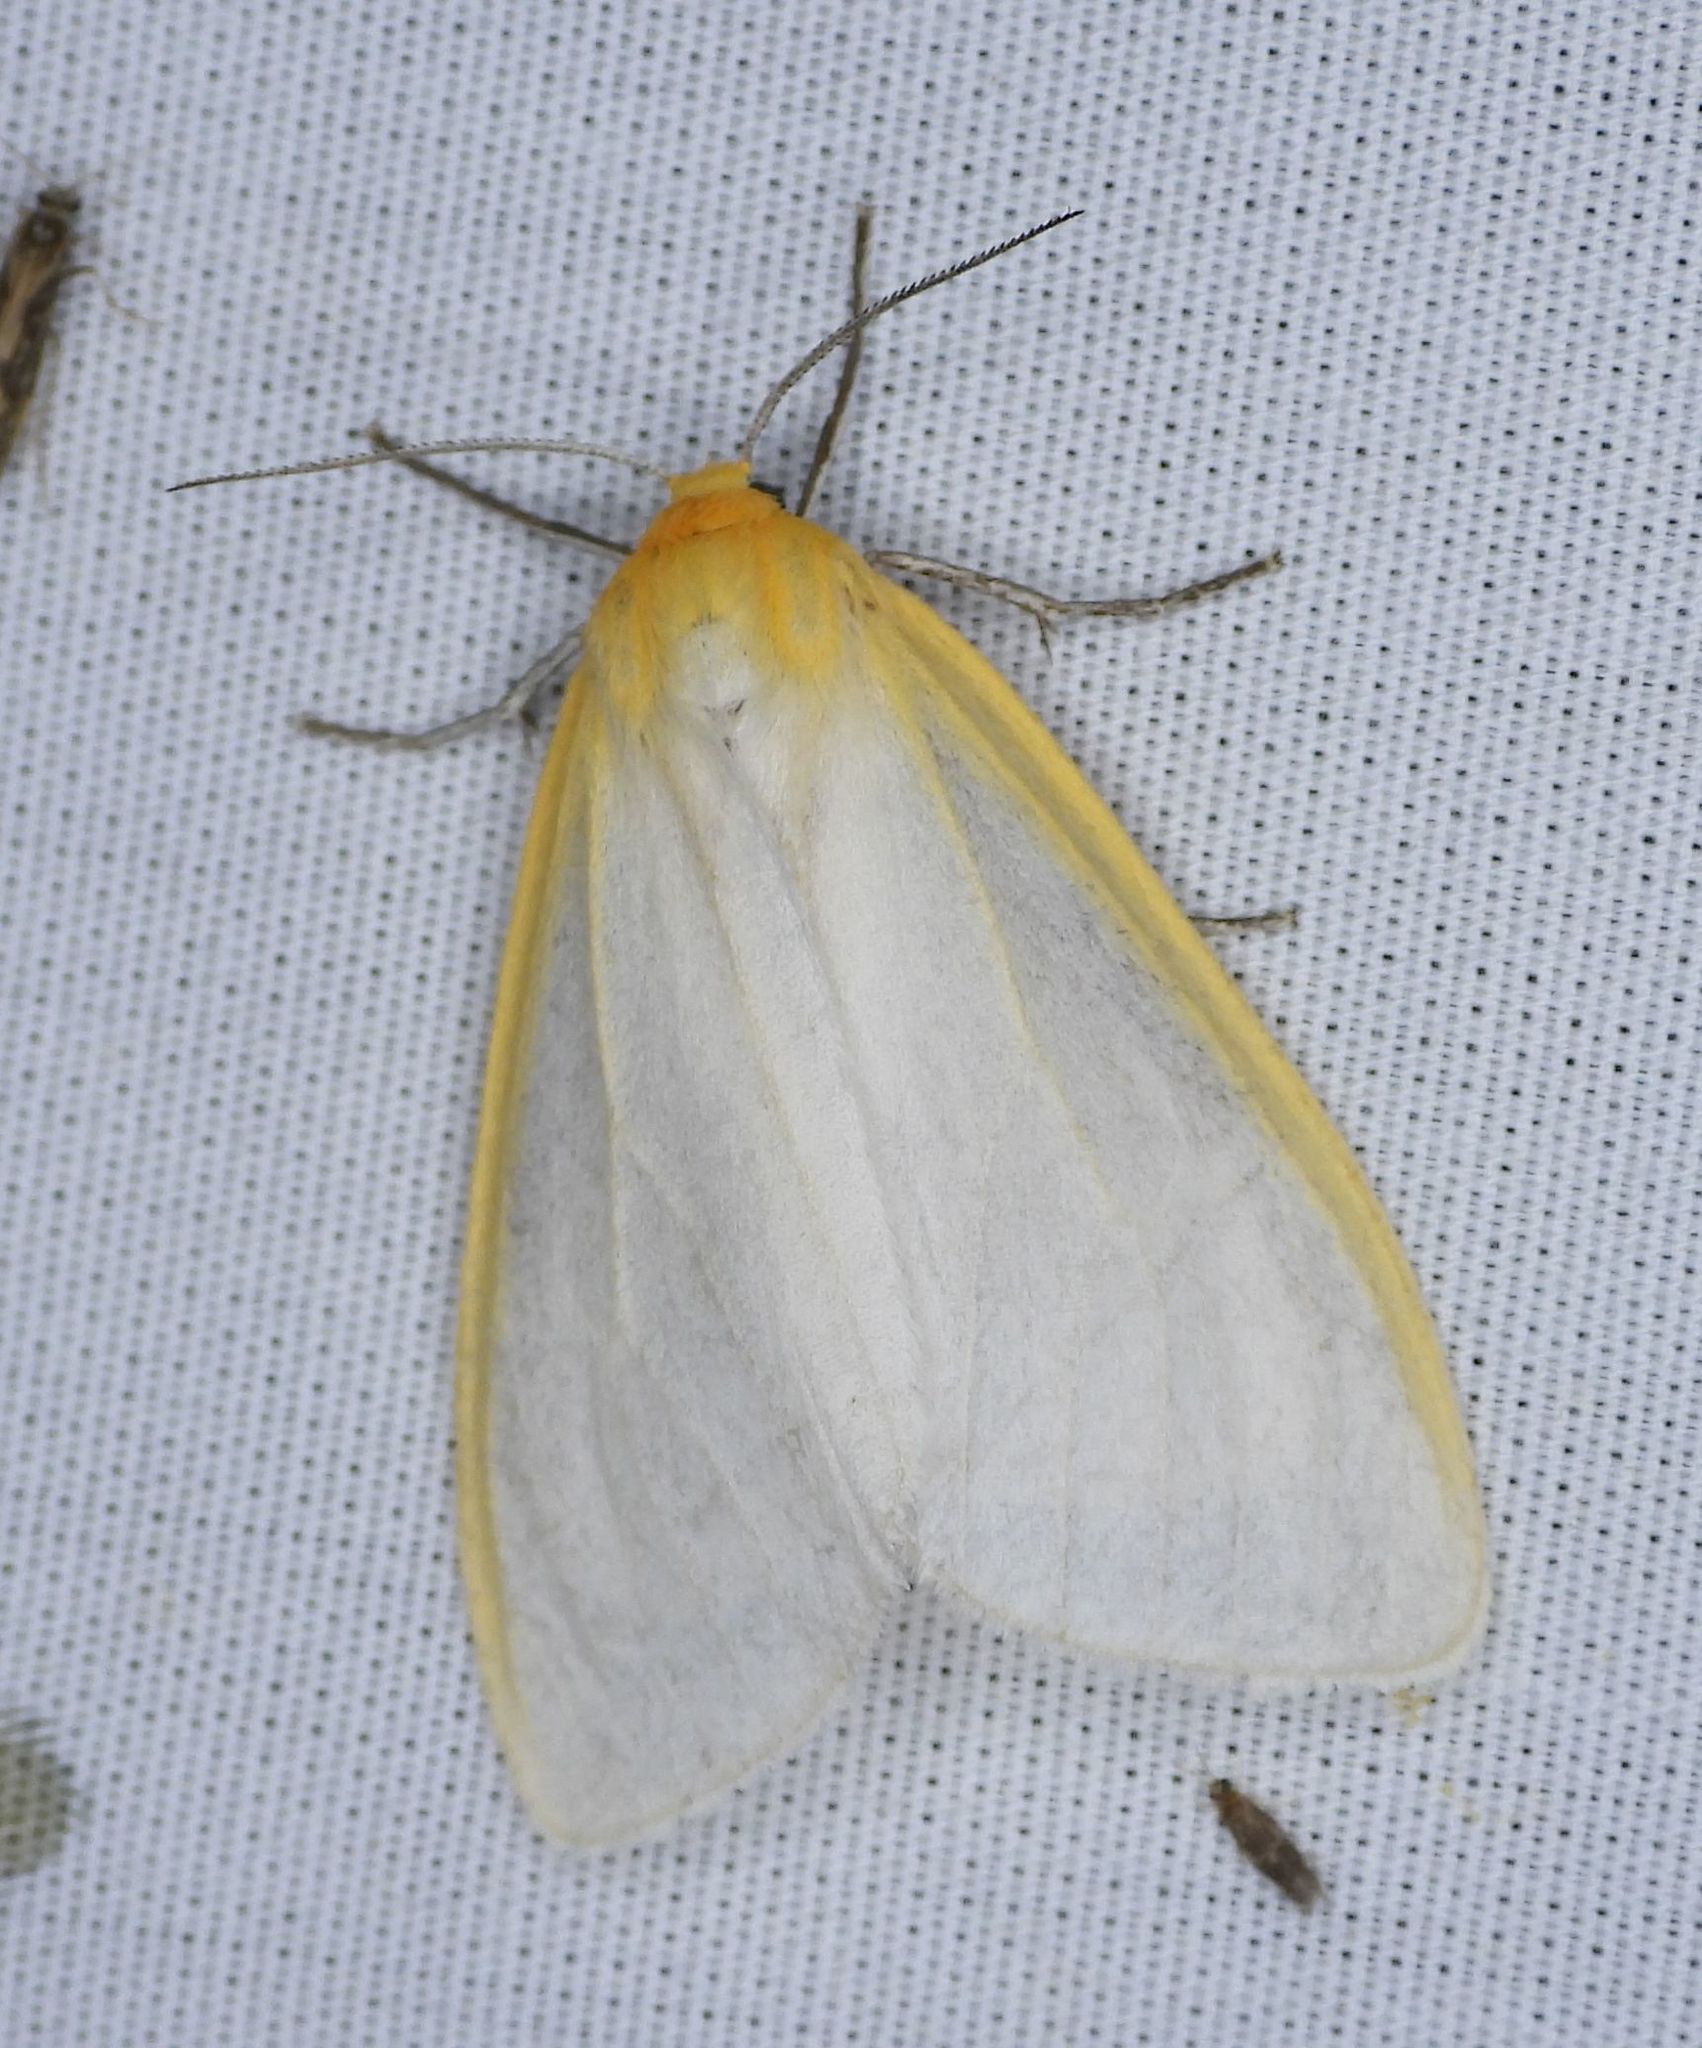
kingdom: Animalia
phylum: Arthropoda
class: Insecta
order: Lepidoptera
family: Erebidae
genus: Cycnia
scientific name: Cycnia tenera
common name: Delicate cycnia moth
